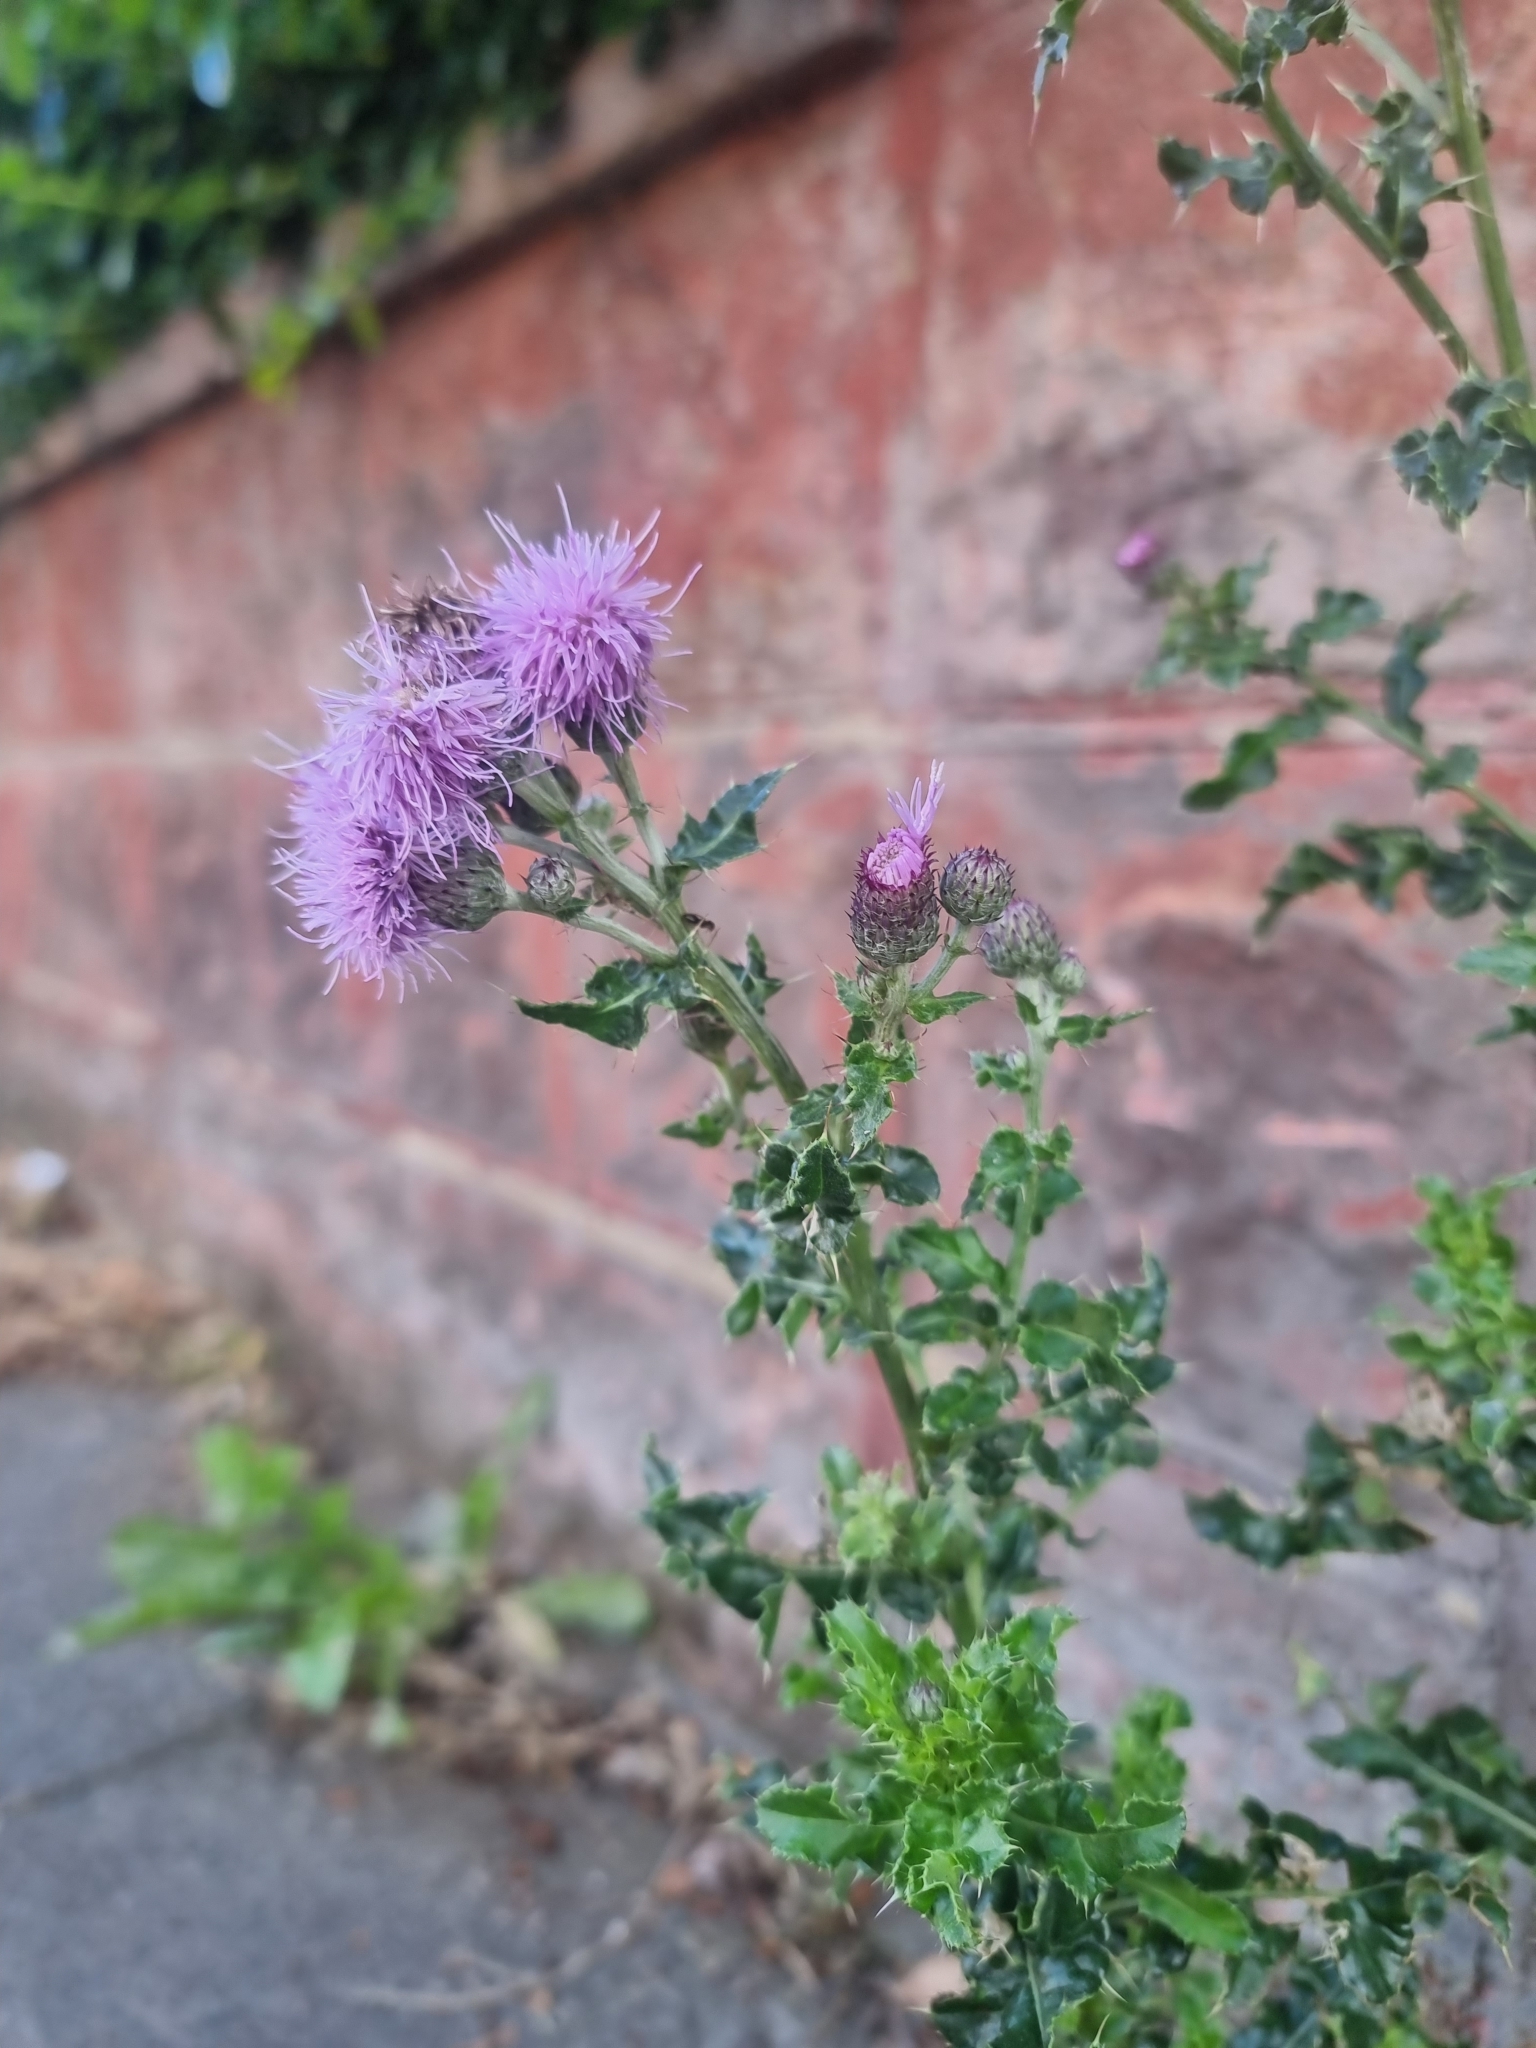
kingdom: Plantae
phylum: Tracheophyta
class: Magnoliopsida
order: Asterales
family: Asteraceae
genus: Cirsium
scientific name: Cirsium arvense
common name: Creeping thistle
